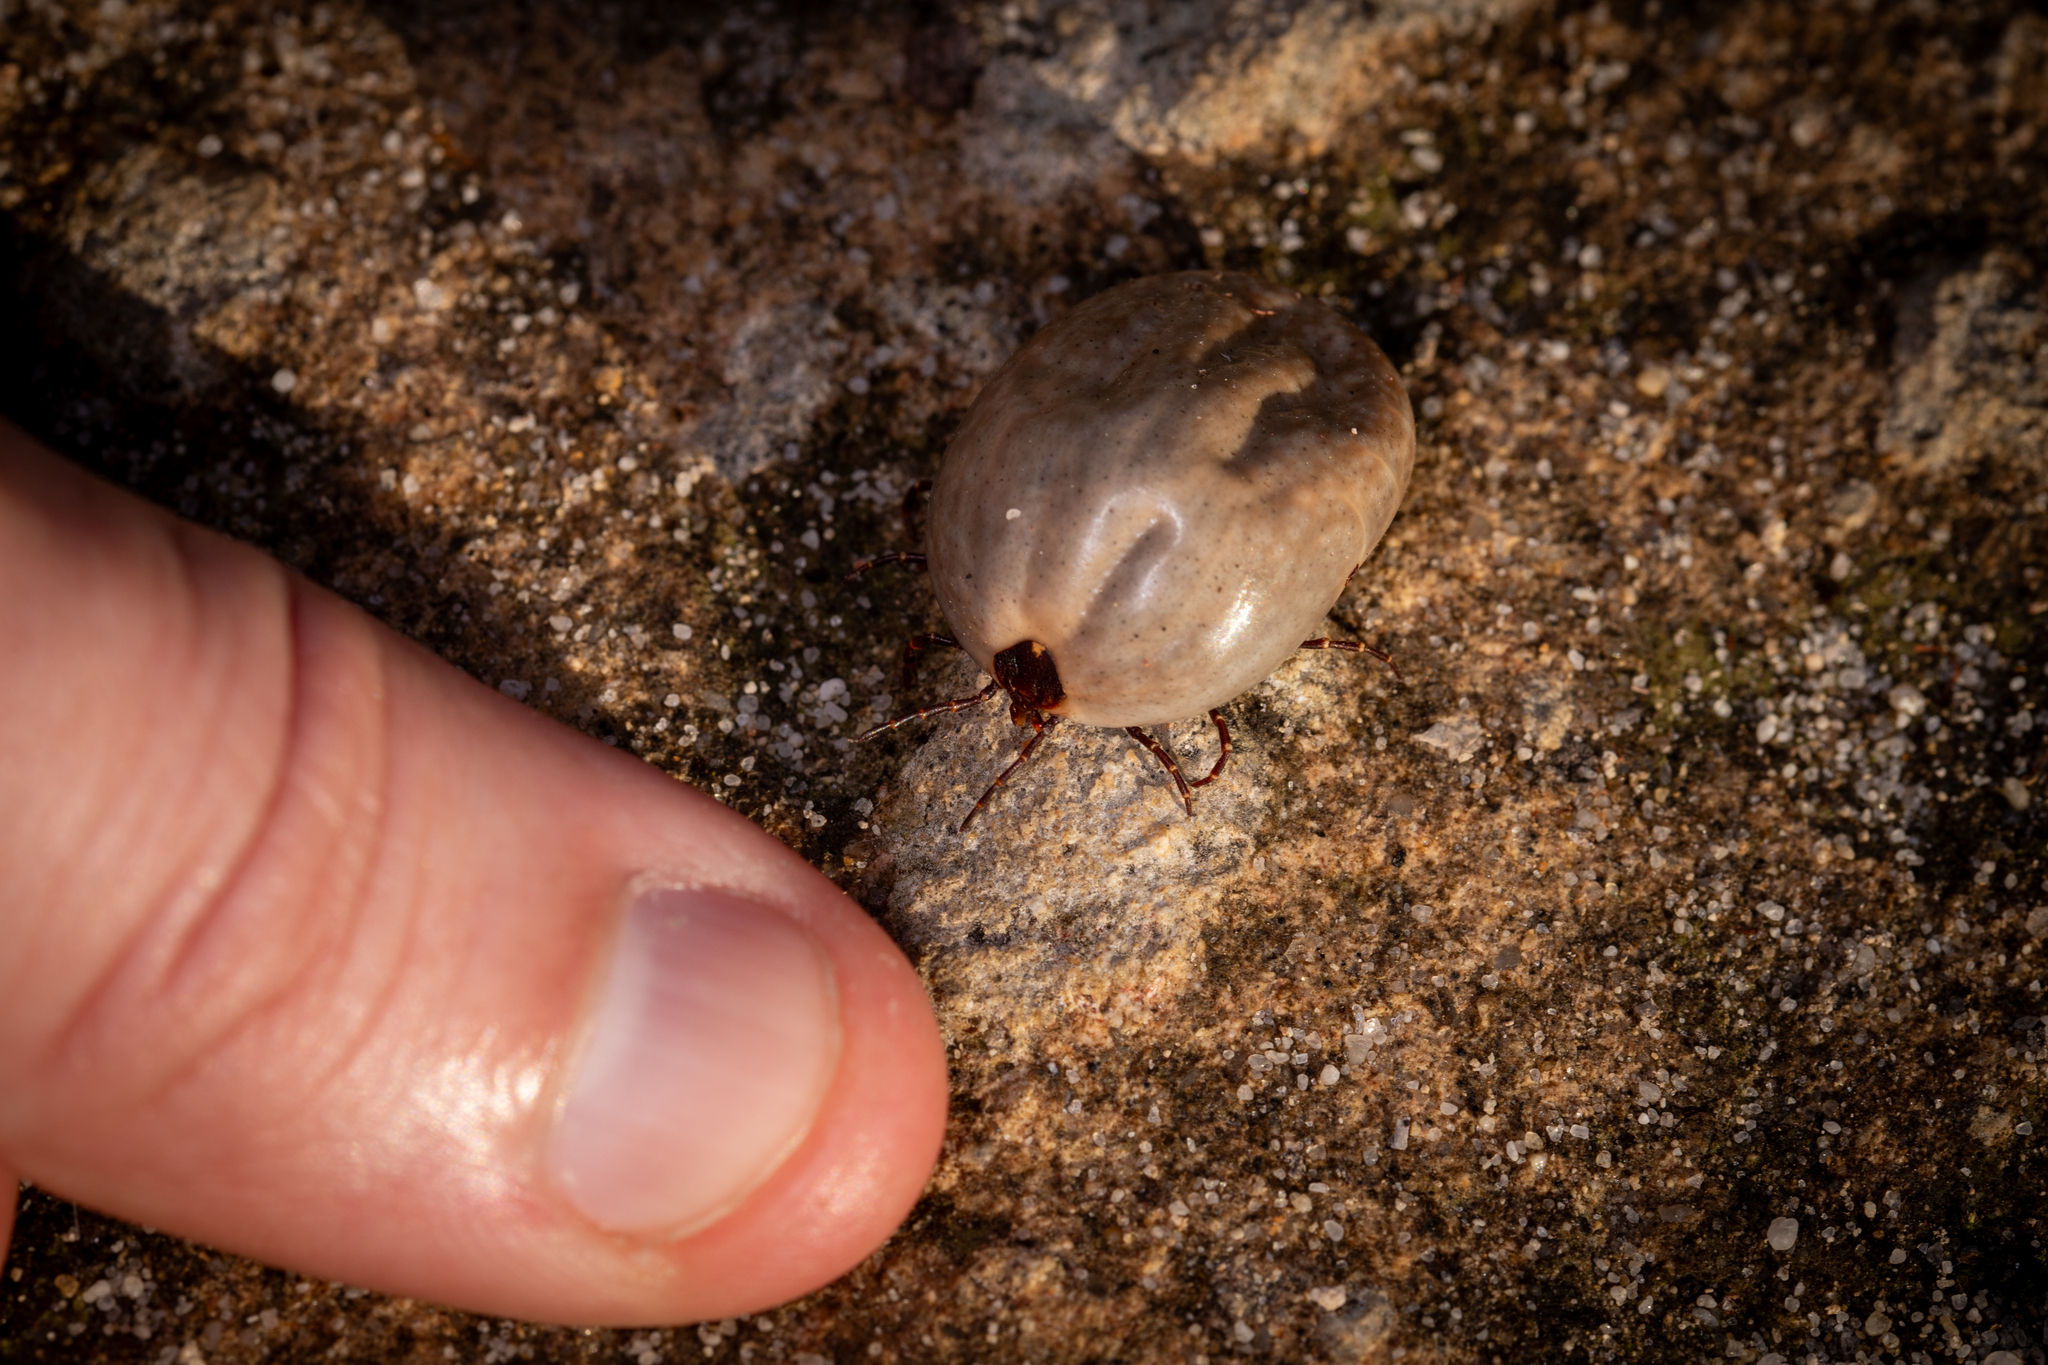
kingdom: Animalia
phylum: Arthropoda
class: Arachnida
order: Ixodida
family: Ixodidae
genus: Amblyomma
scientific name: Amblyomma triguttatum
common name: Kangaroo hard tick
